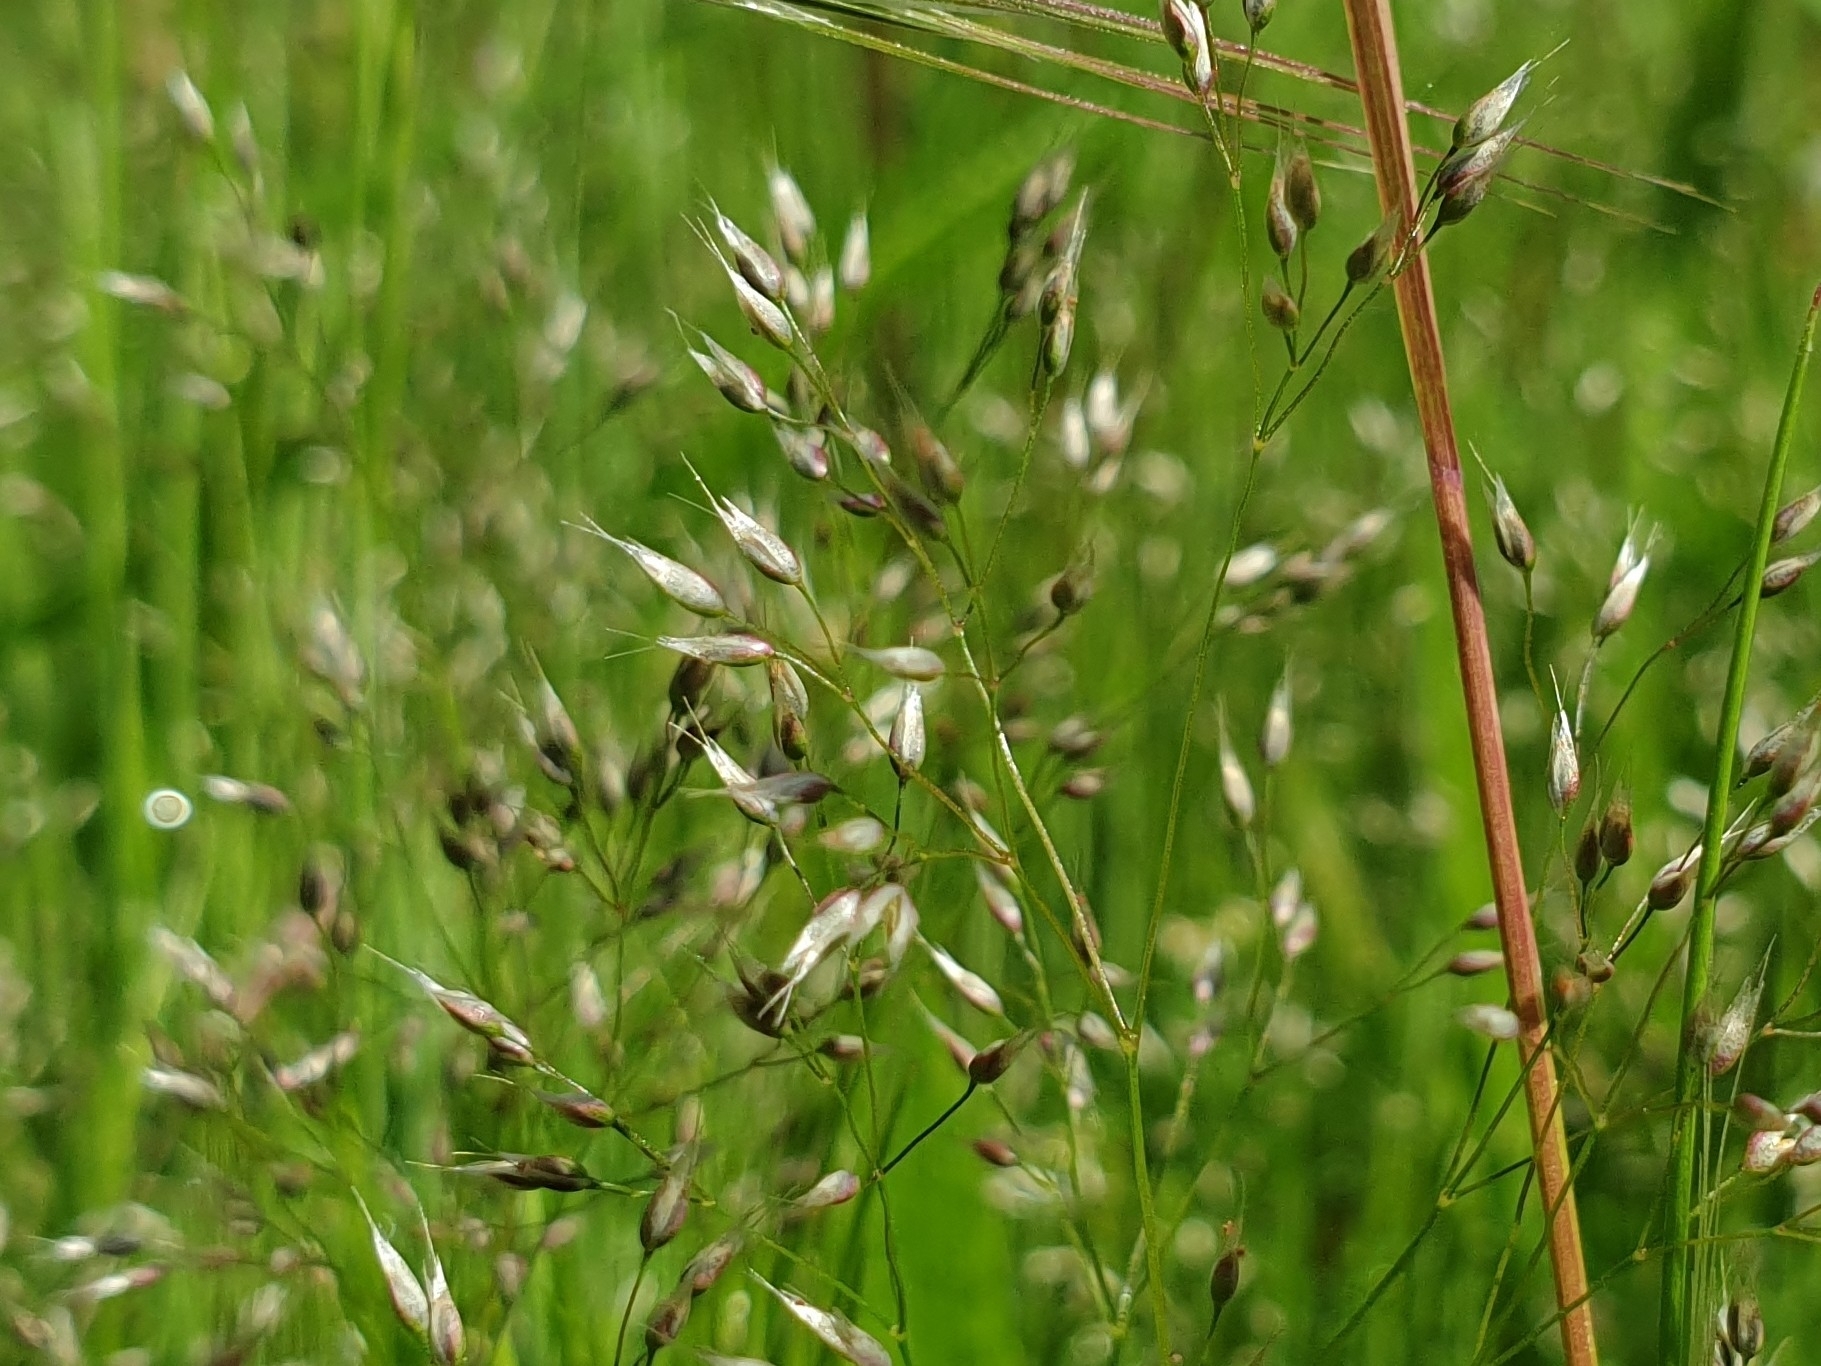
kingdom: Plantae
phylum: Tracheophyta
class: Liliopsida
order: Poales
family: Poaceae
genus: Aira
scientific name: Aira caryophyllea
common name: Silver hairgrass
